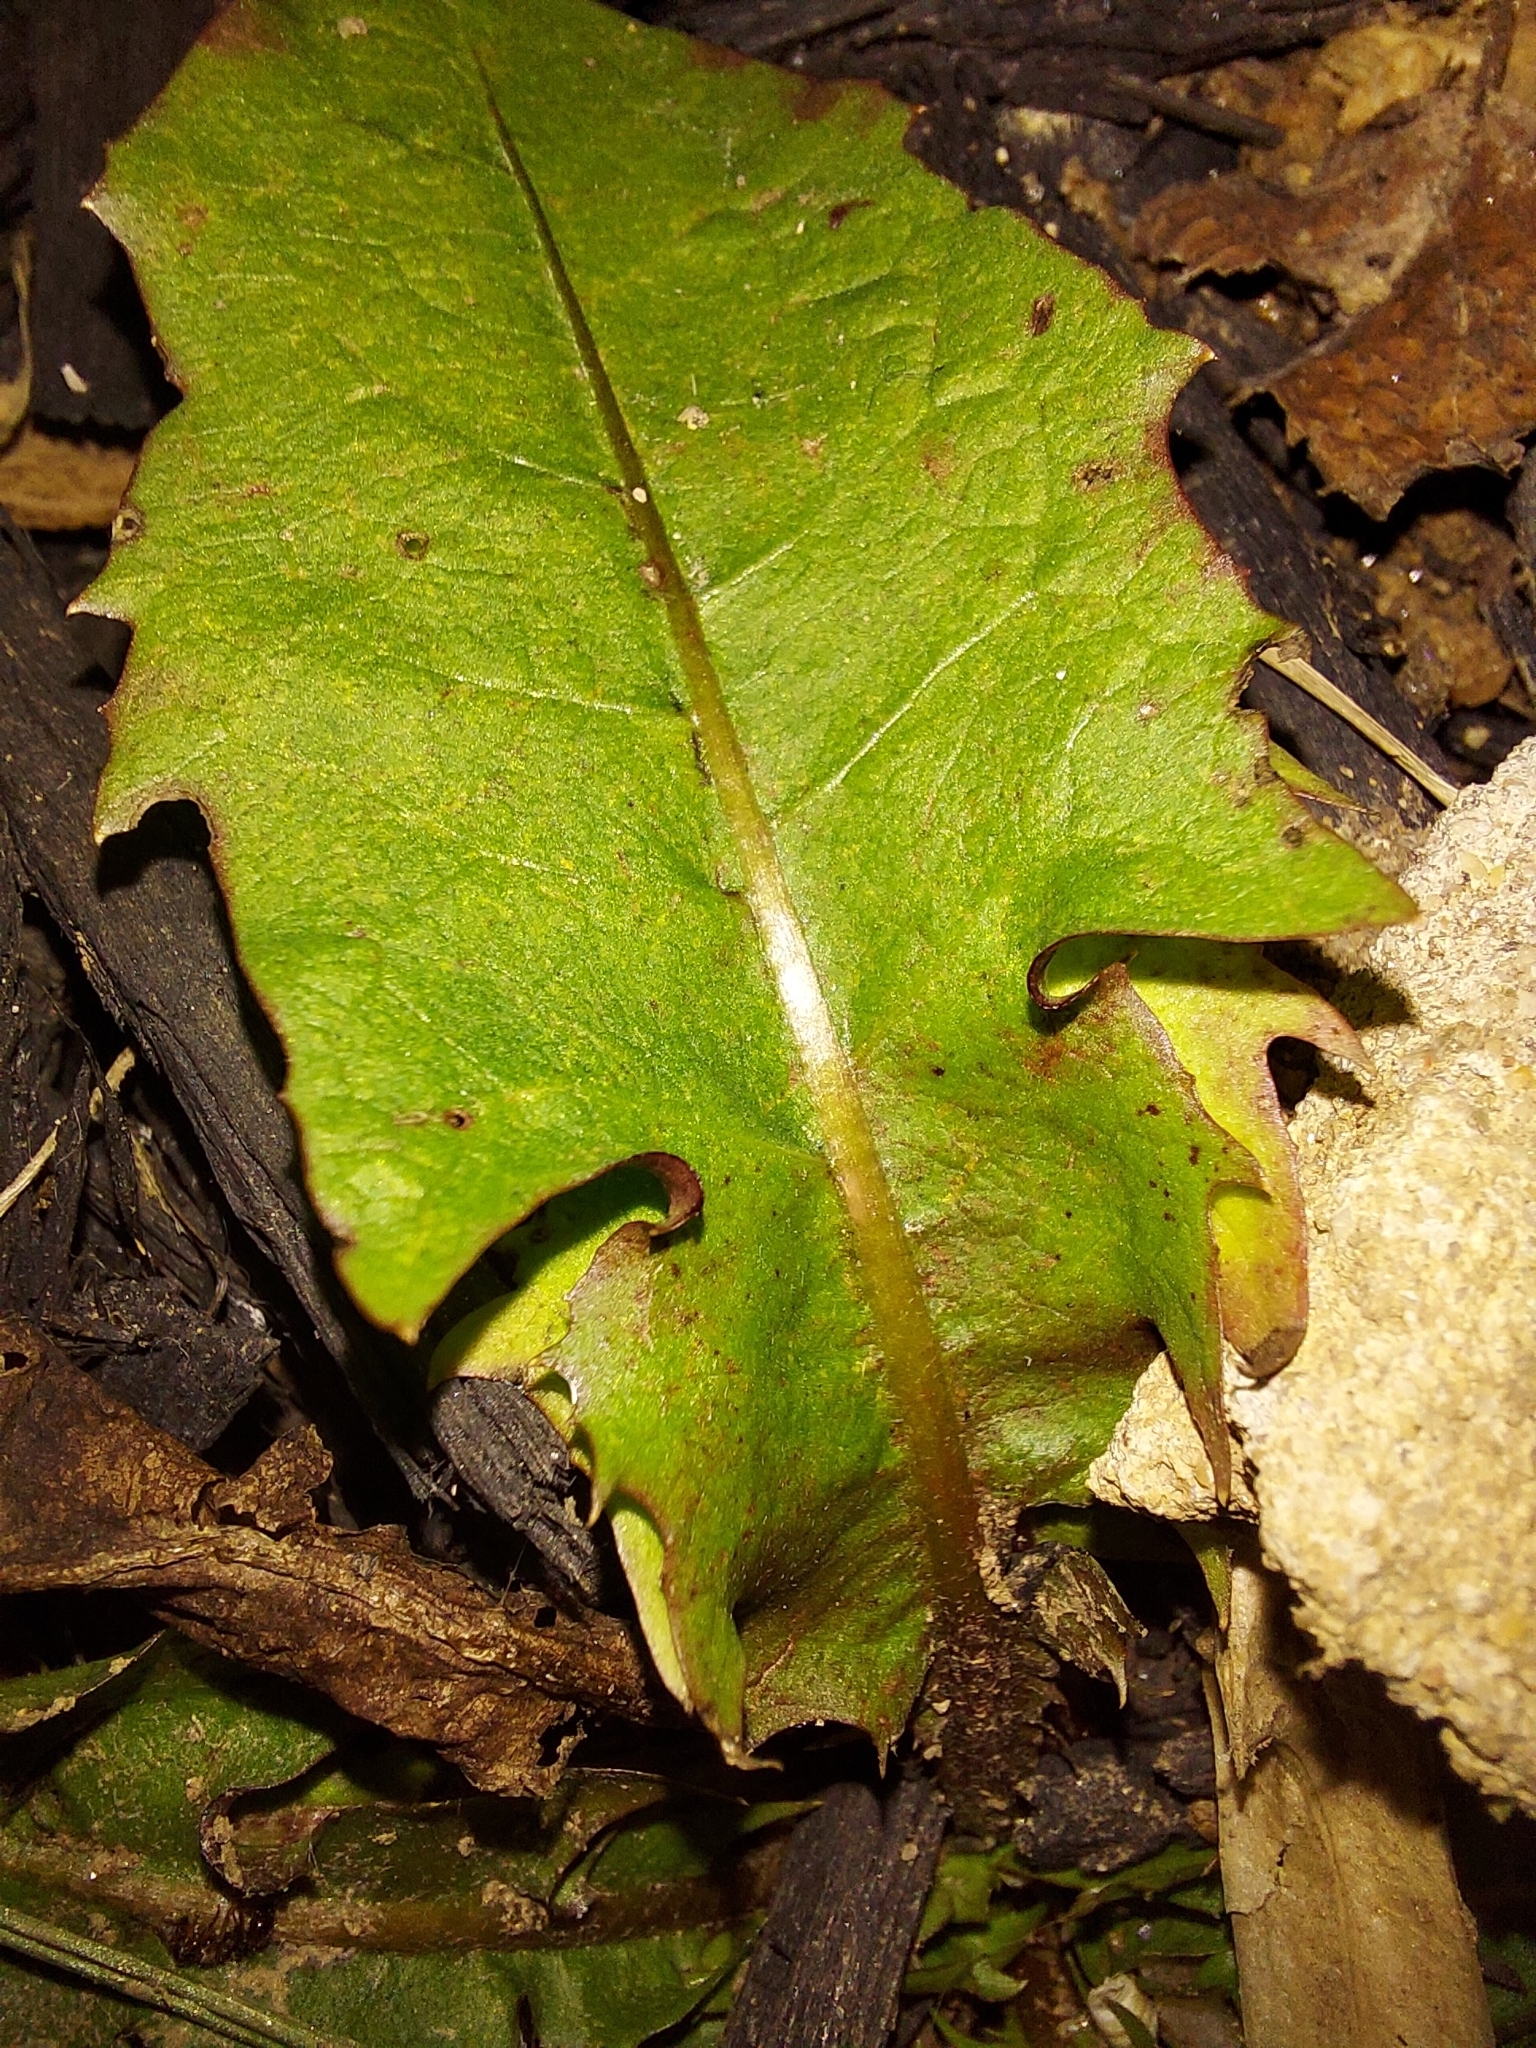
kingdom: Plantae
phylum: Tracheophyta
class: Magnoliopsida
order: Asterales
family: Asteraceae
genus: Taraxacum
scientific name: Taraxacum officinale
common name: Common dandelion
